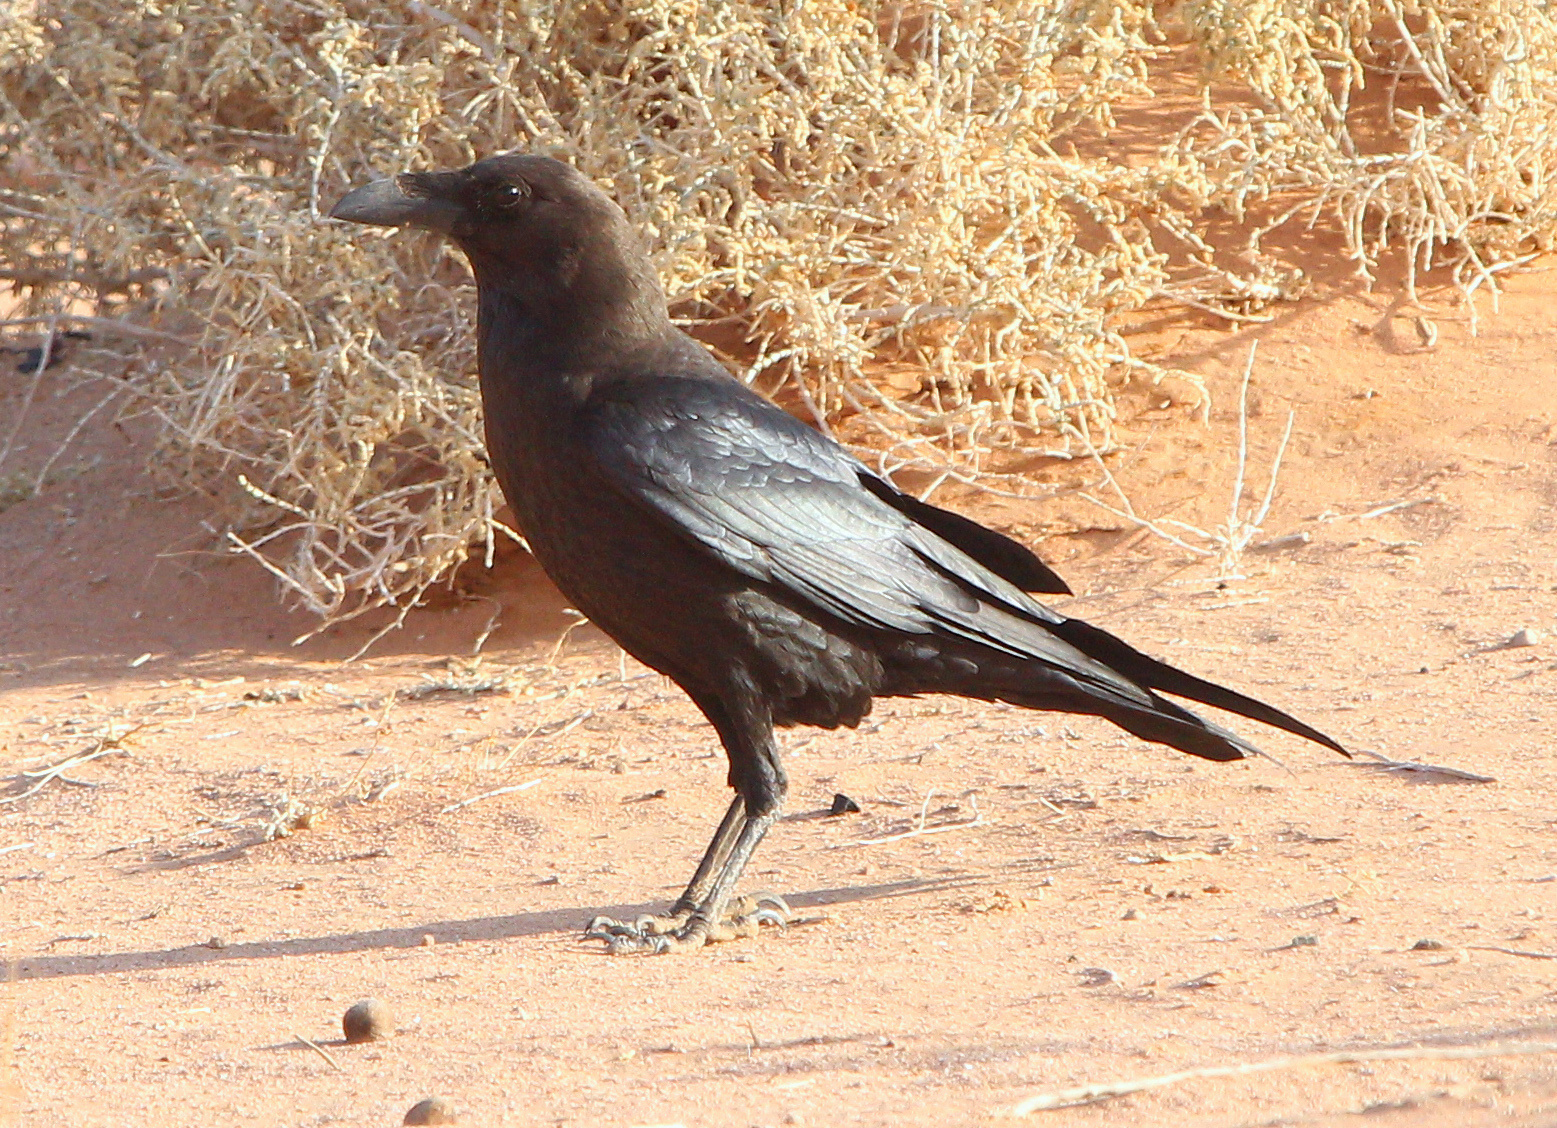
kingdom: Animalia
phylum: Chordata
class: Aves
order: Passeriformes
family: Corvidae
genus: Corvus
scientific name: Corvus ruficollis
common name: Brown-necked raven
